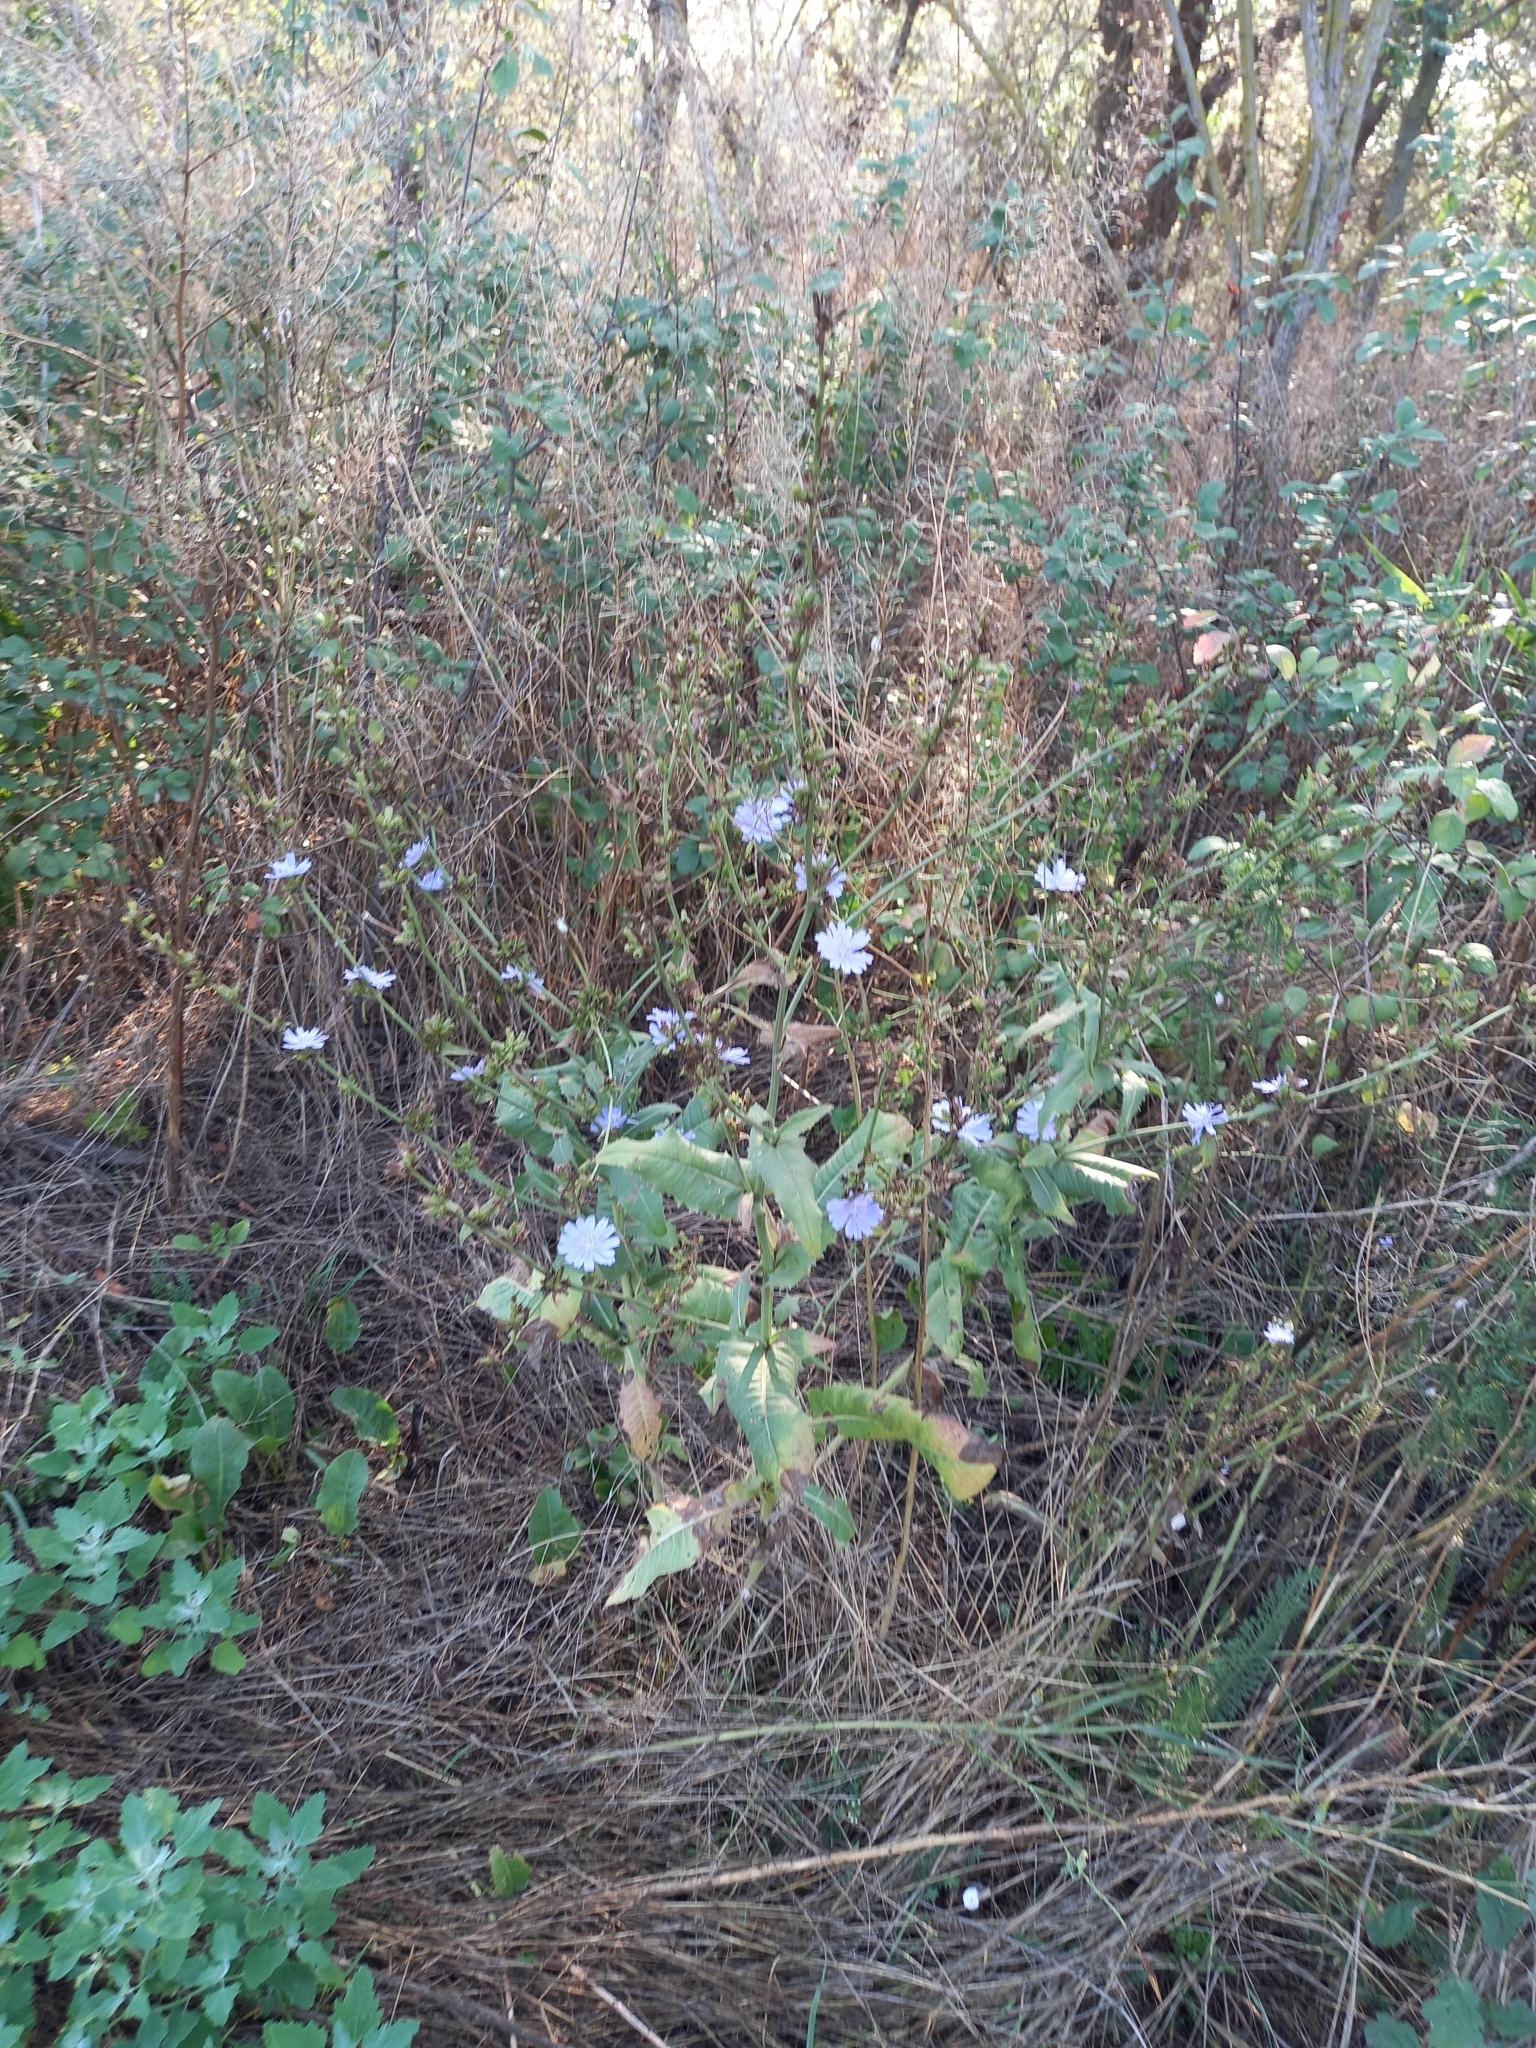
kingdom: Plantae
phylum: Tracheophyta
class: Magnoliopsida
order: Asterales
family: Asteraceae
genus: Cichorium
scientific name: Cichorium intybus
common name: Chicory
